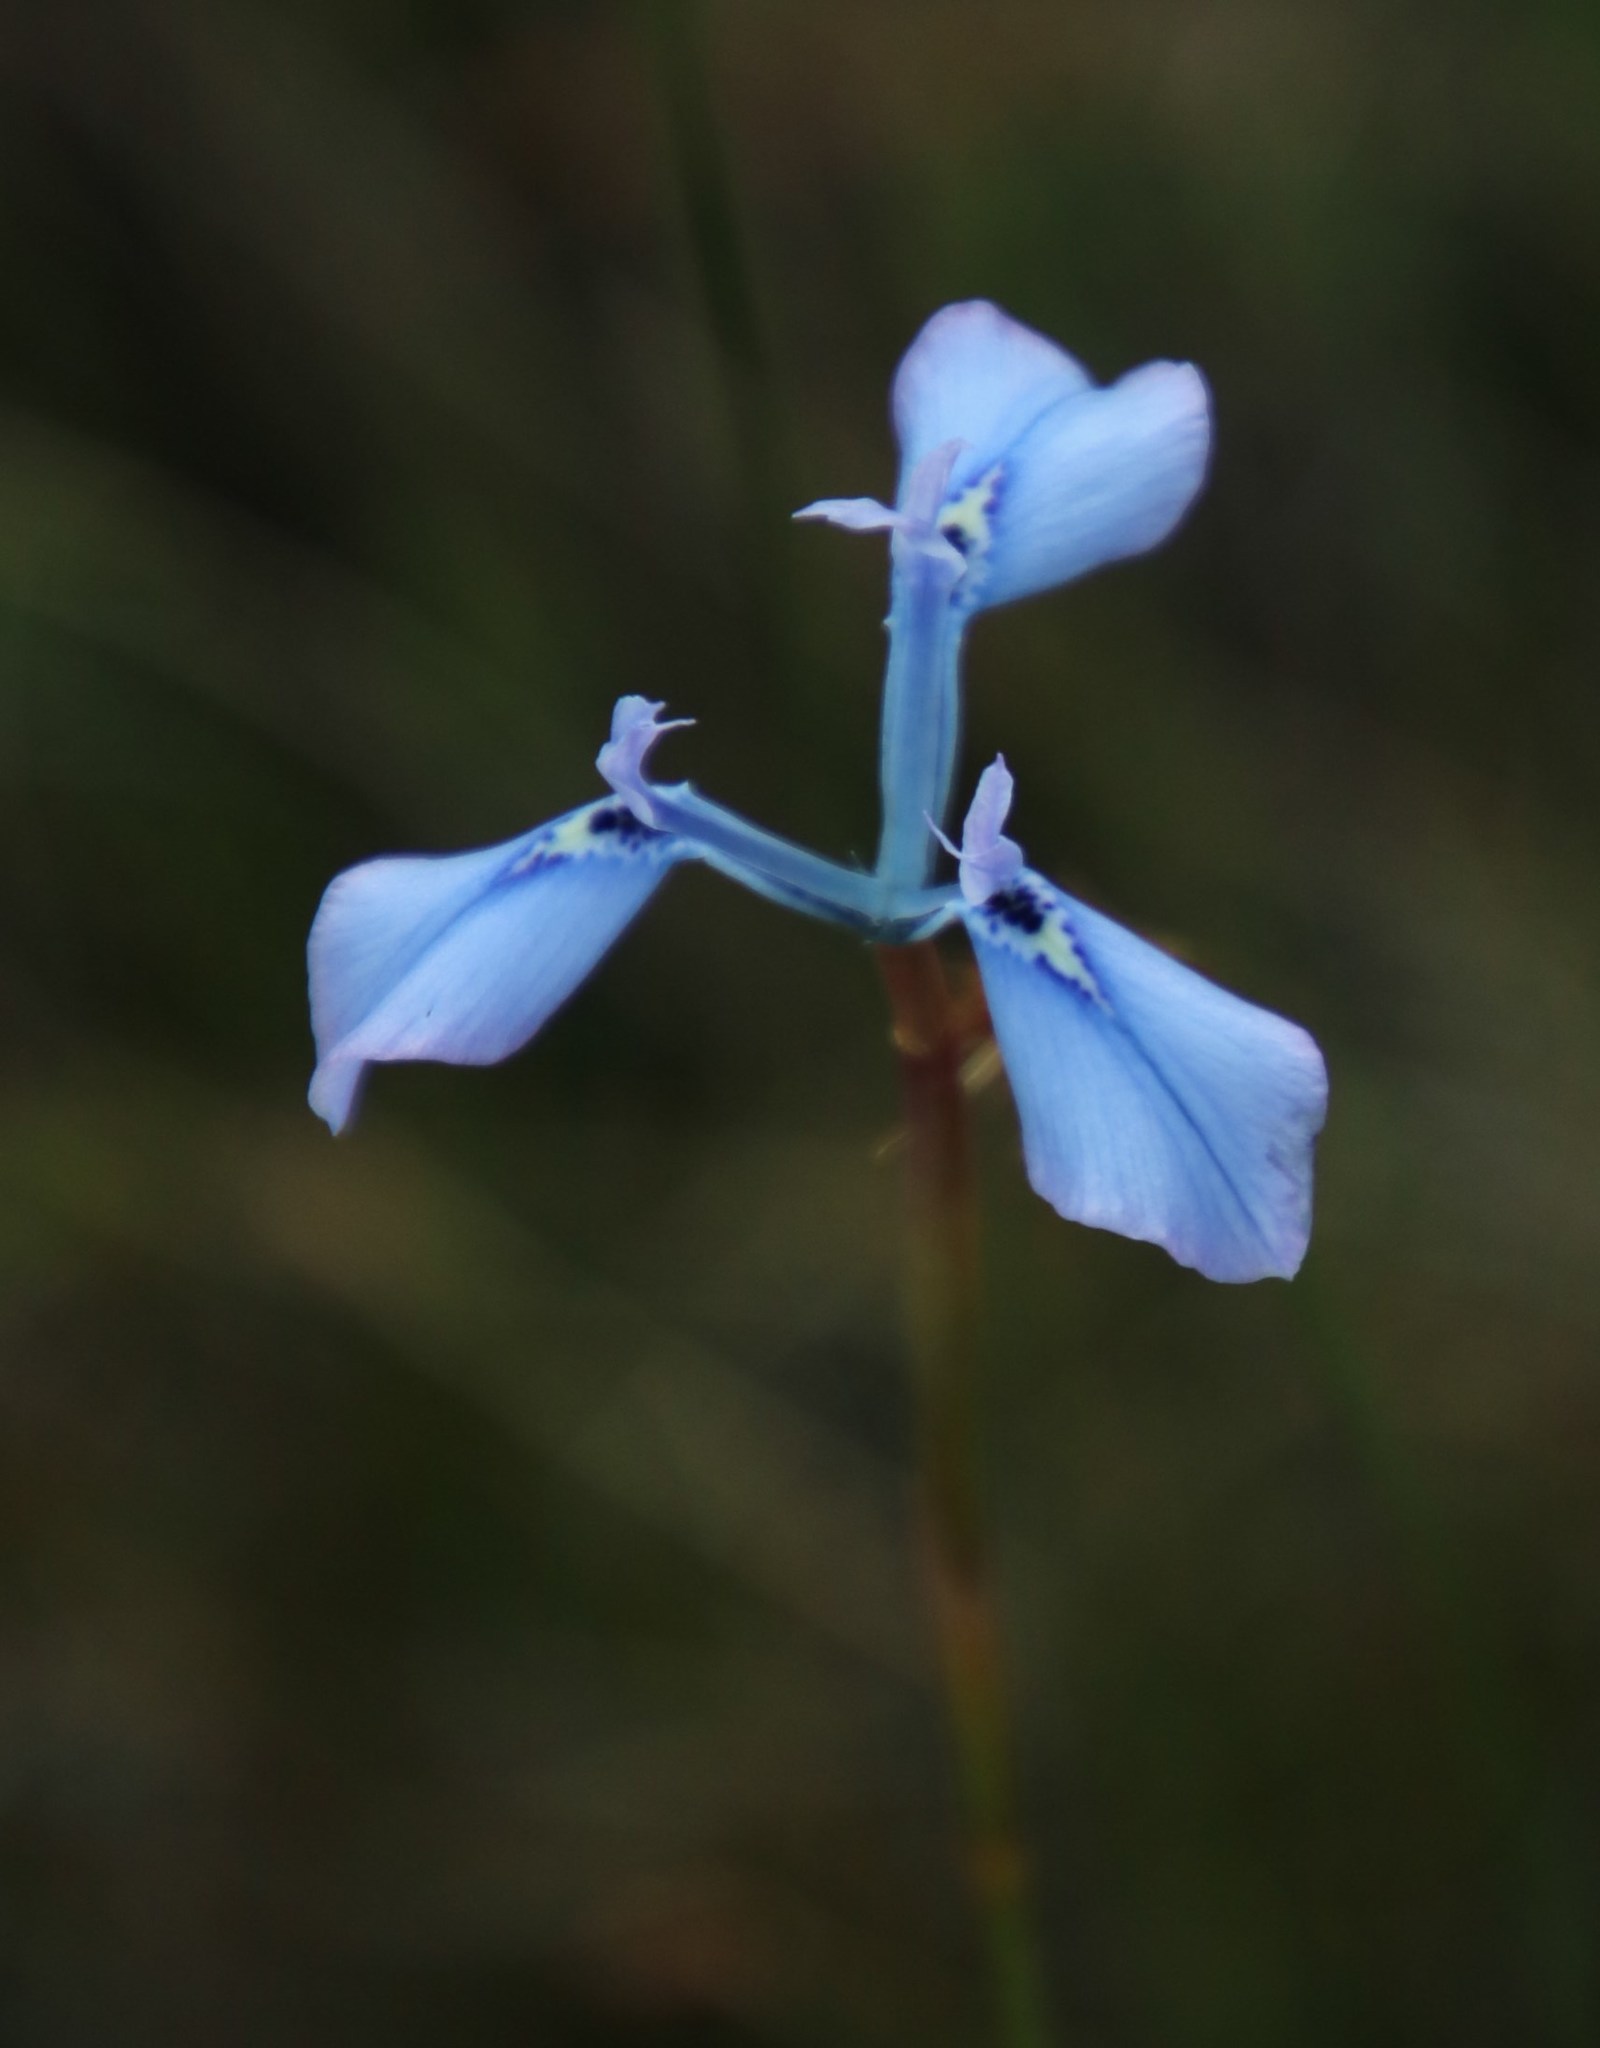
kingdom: Plantae
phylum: Tracheophyta
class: Liliopsida
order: Asparagales
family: Iridaceae
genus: Moraea
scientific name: Moraea tripetala
